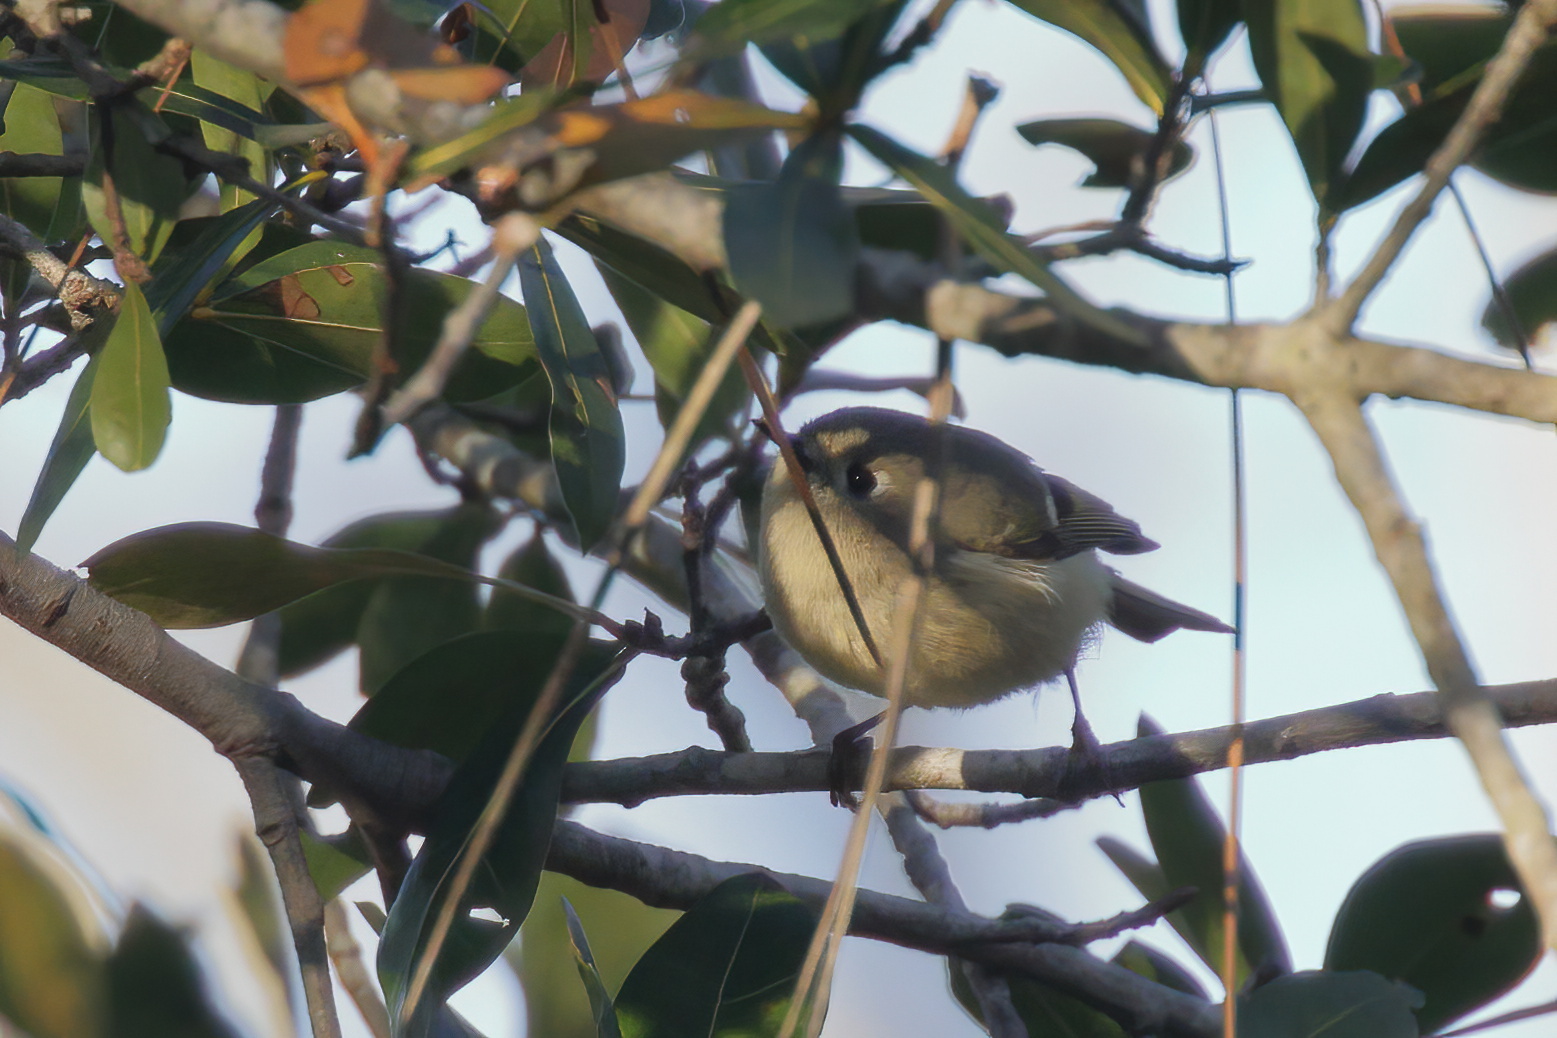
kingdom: Animalia
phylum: Chordata
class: Aves
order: Passeriformes
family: Regulidae
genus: Regulus
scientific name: Regulus calendula
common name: Ruby-crowned kinglet
